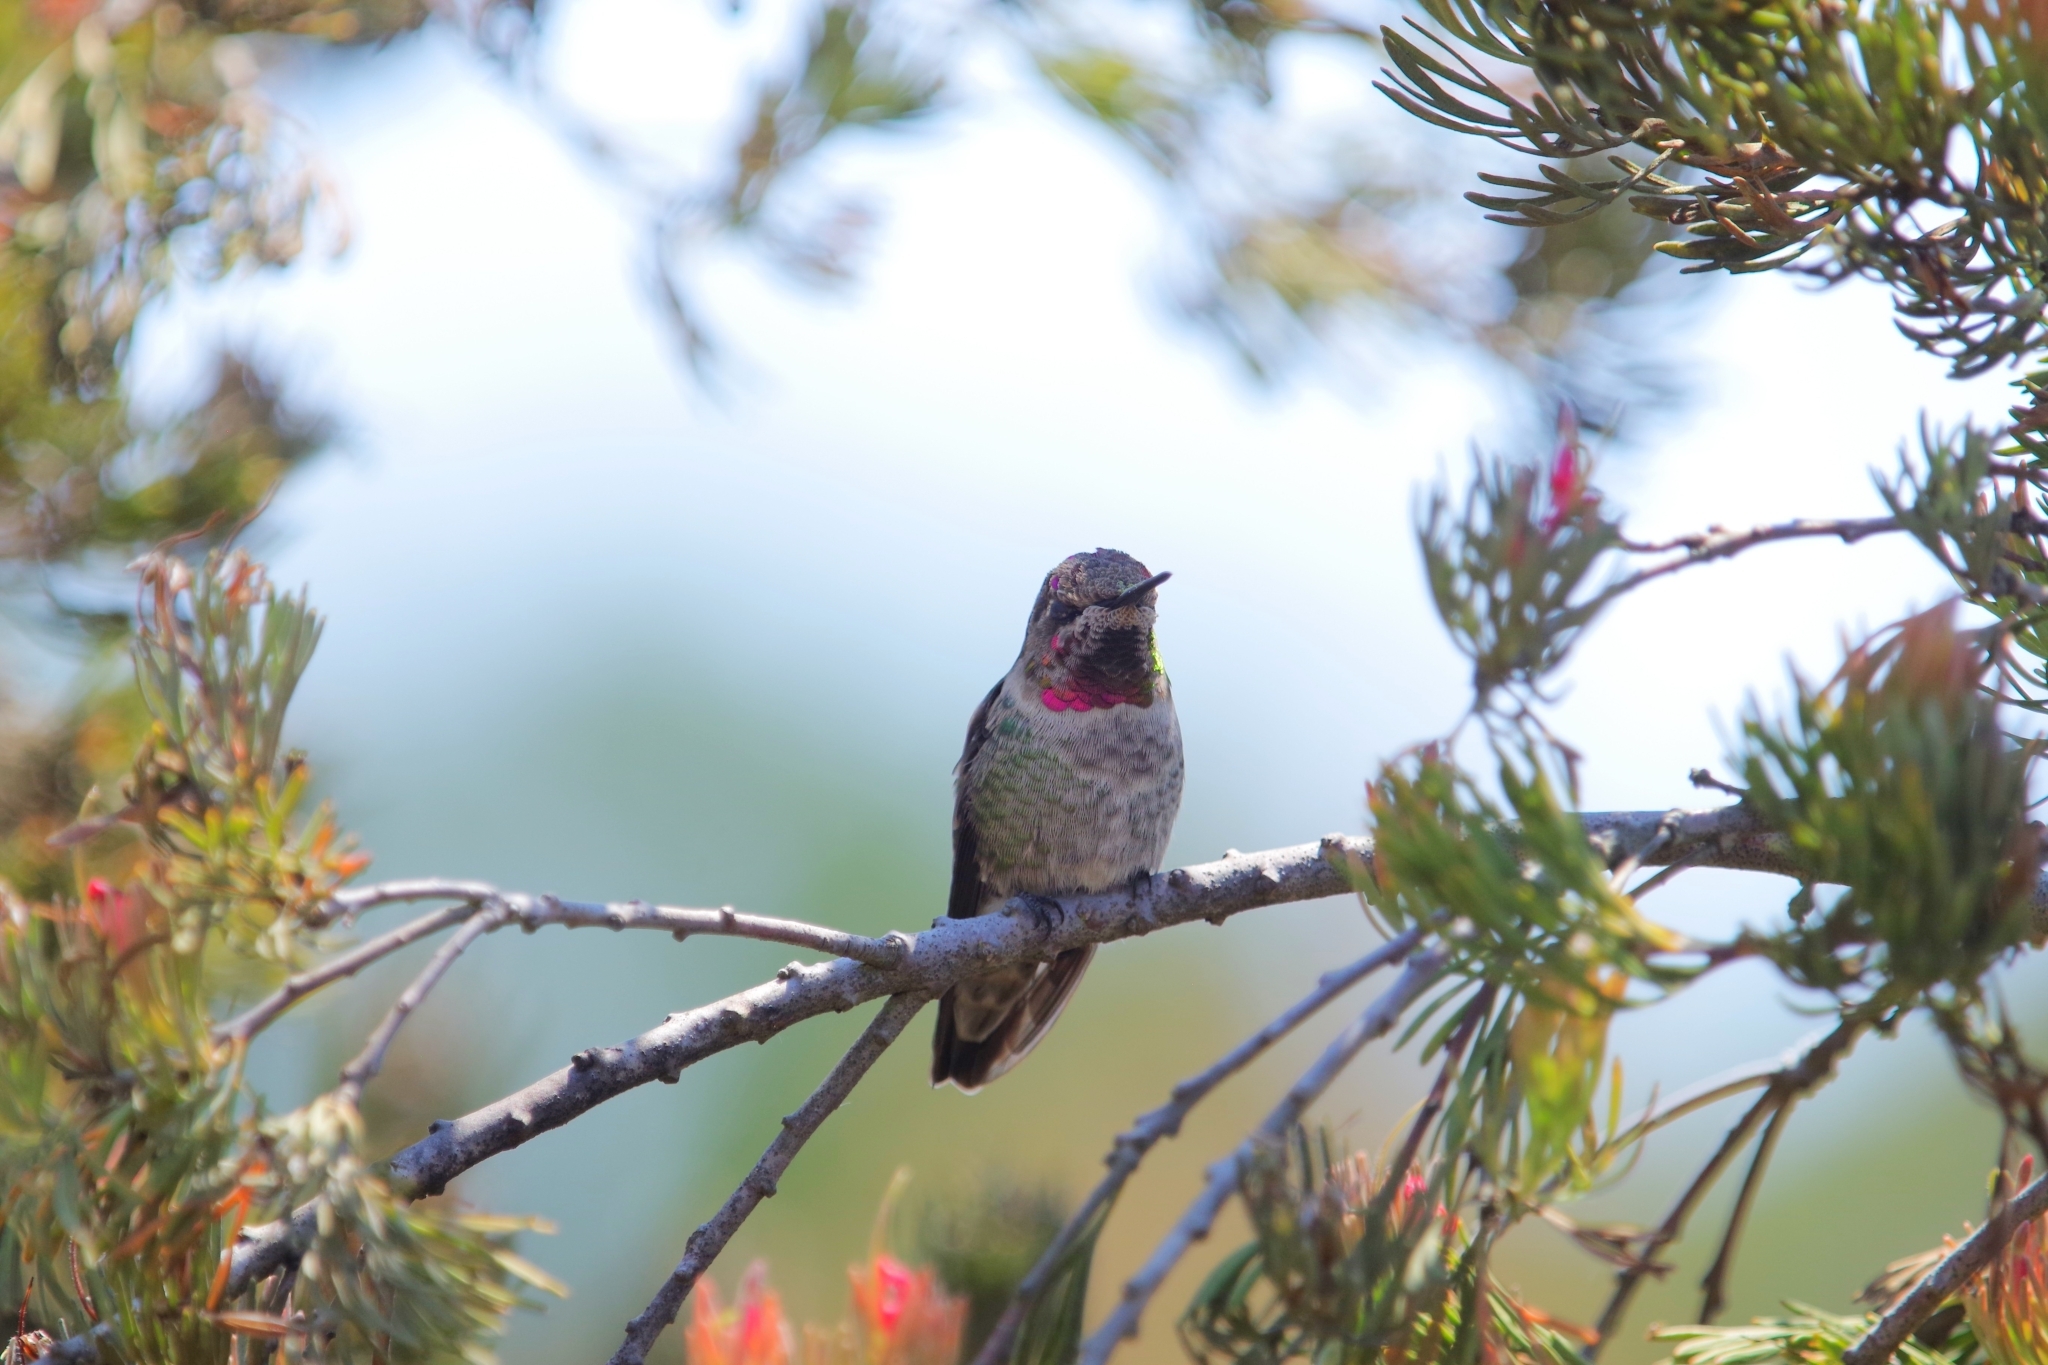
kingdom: Animalia
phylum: Chordata
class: Aves
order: Apodiformes
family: Trochilidae
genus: Calypte
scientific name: Calypte anna
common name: Anna's hummingbird
